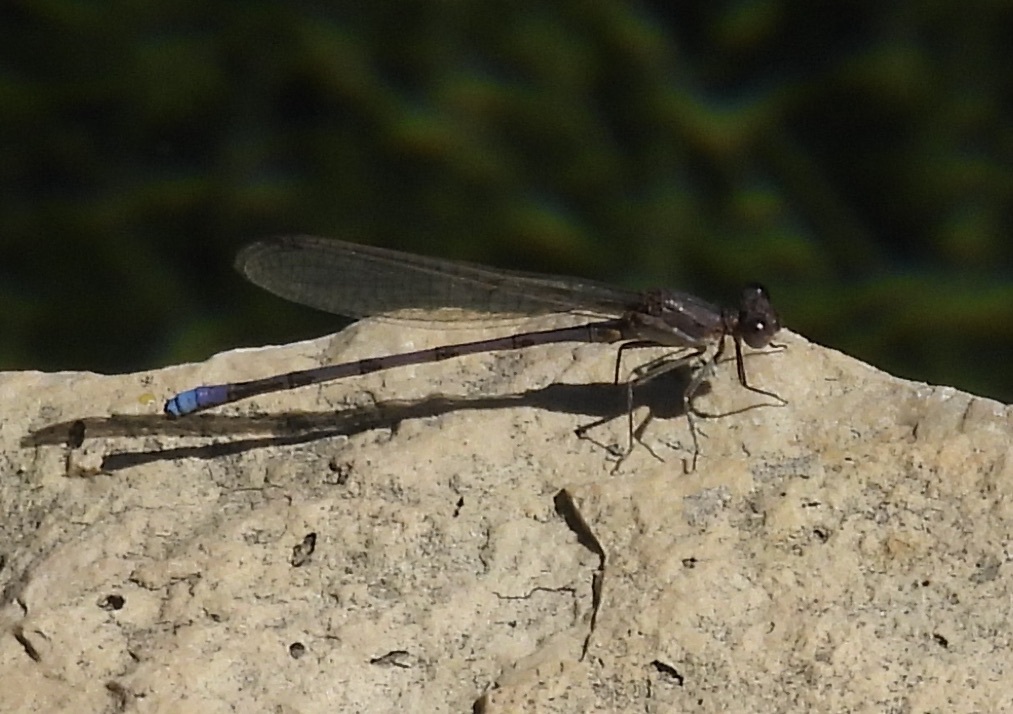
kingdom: Animalia
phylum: Arthropoda
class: Insecta
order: Odonata
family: Coenagrionidae
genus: Argia
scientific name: Argia fumipennis
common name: Variable dancer
